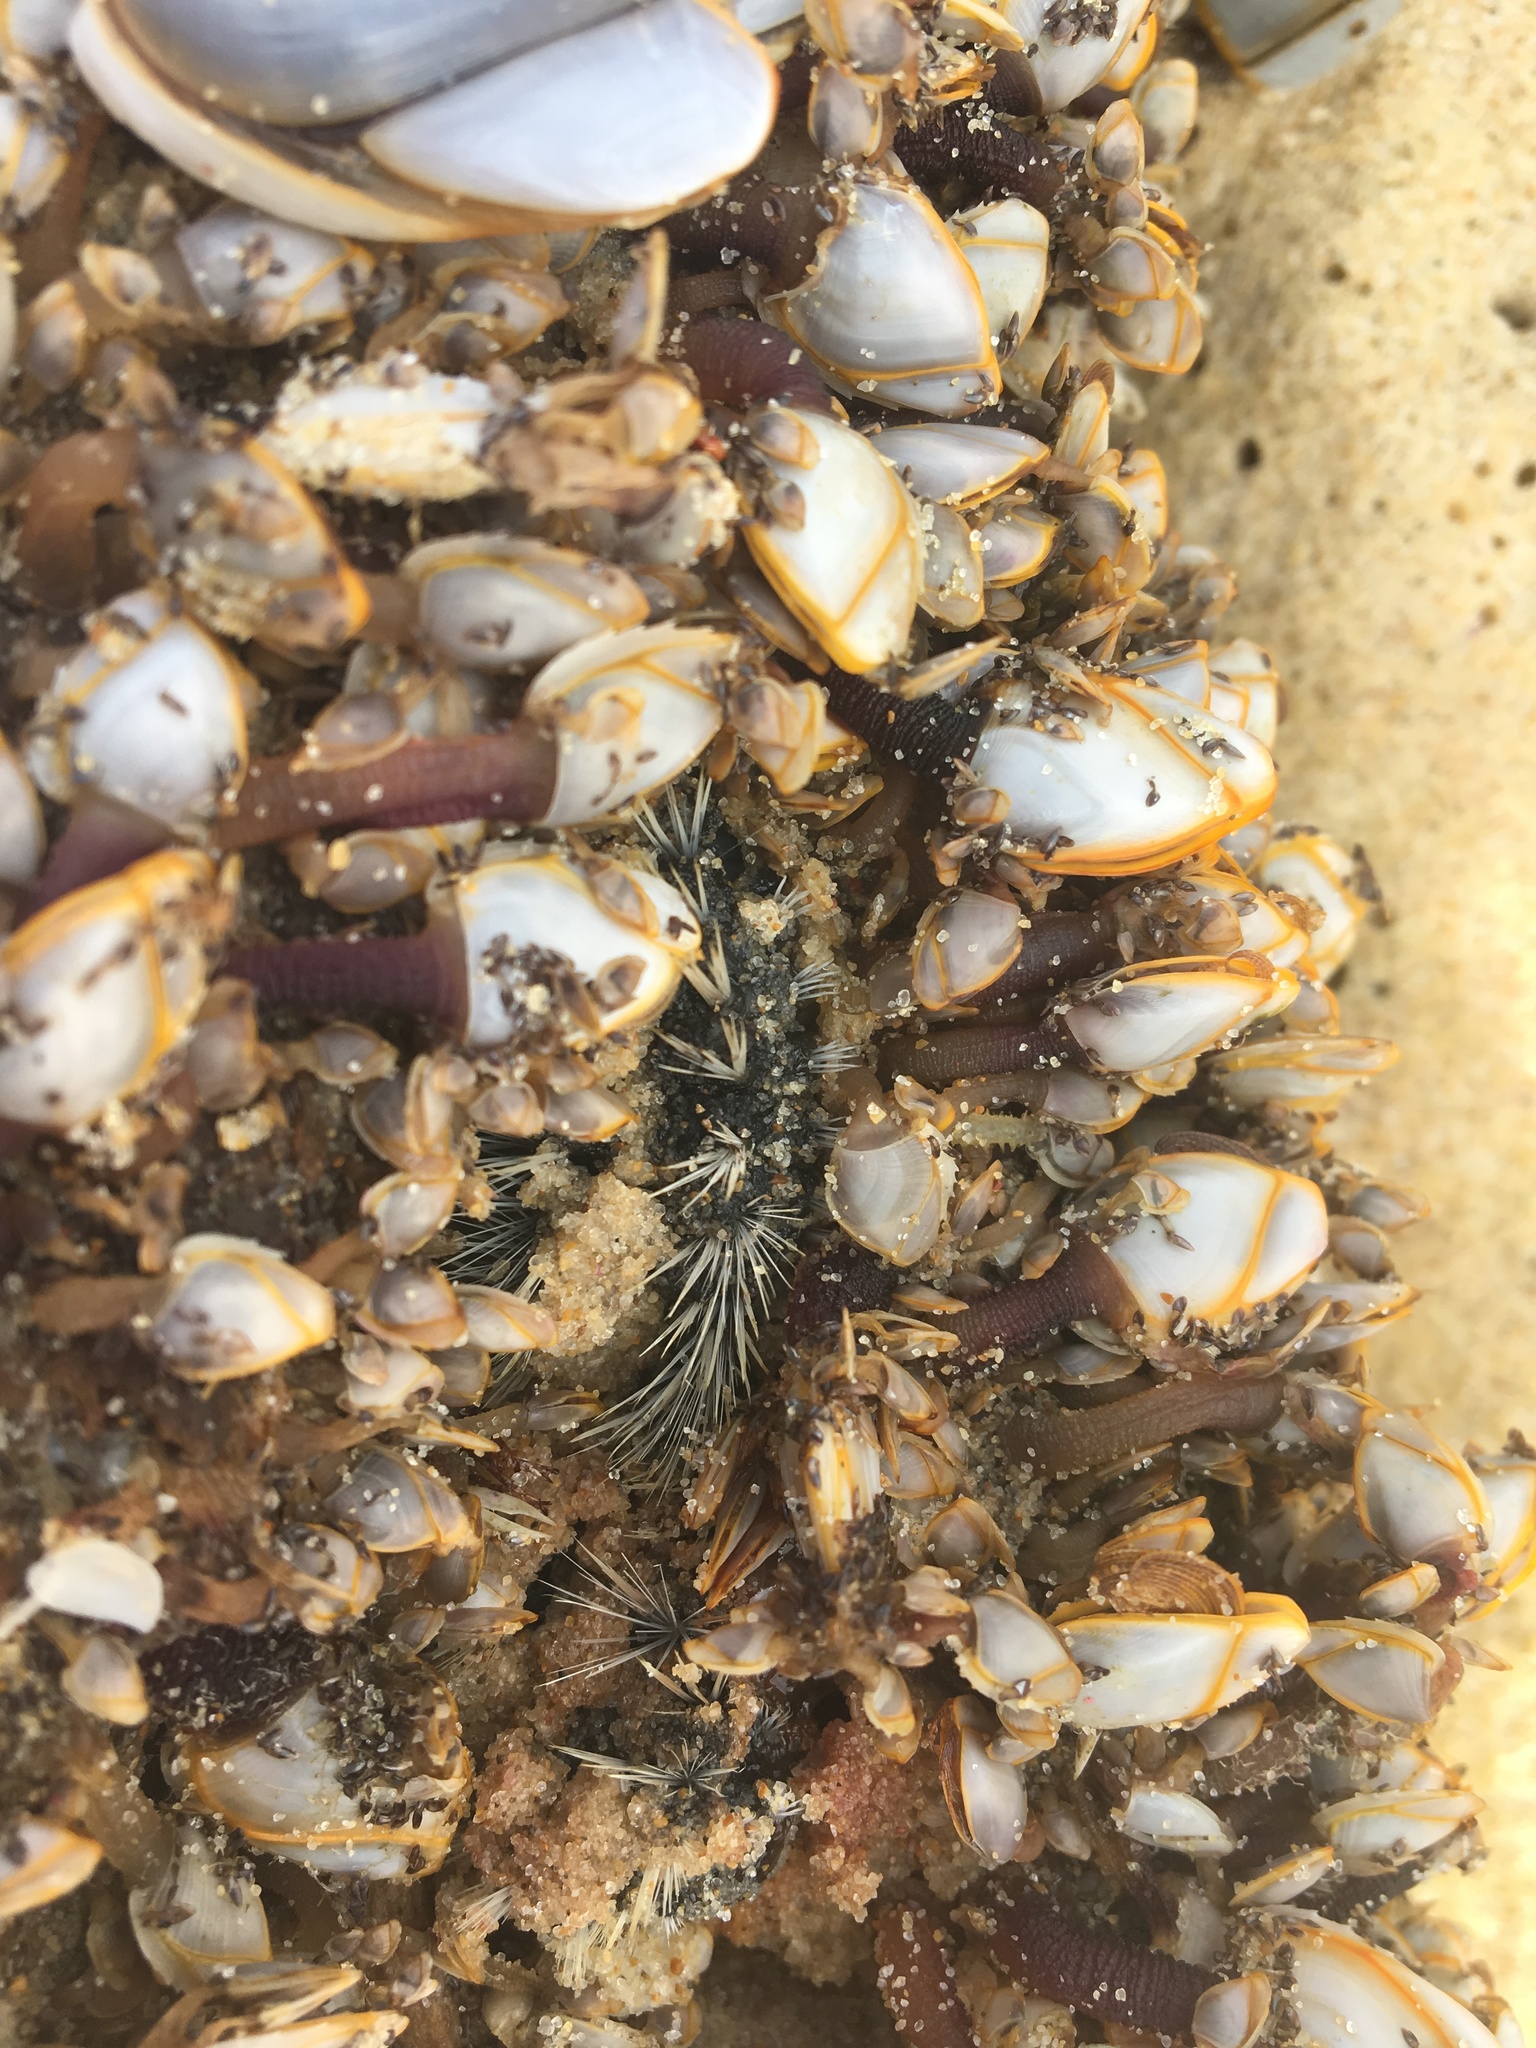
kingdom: Animalia
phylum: Annelida
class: Polychaeta
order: Amphinomida
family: Amphinomidae
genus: Amphinome
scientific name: Amphinome rostrata
